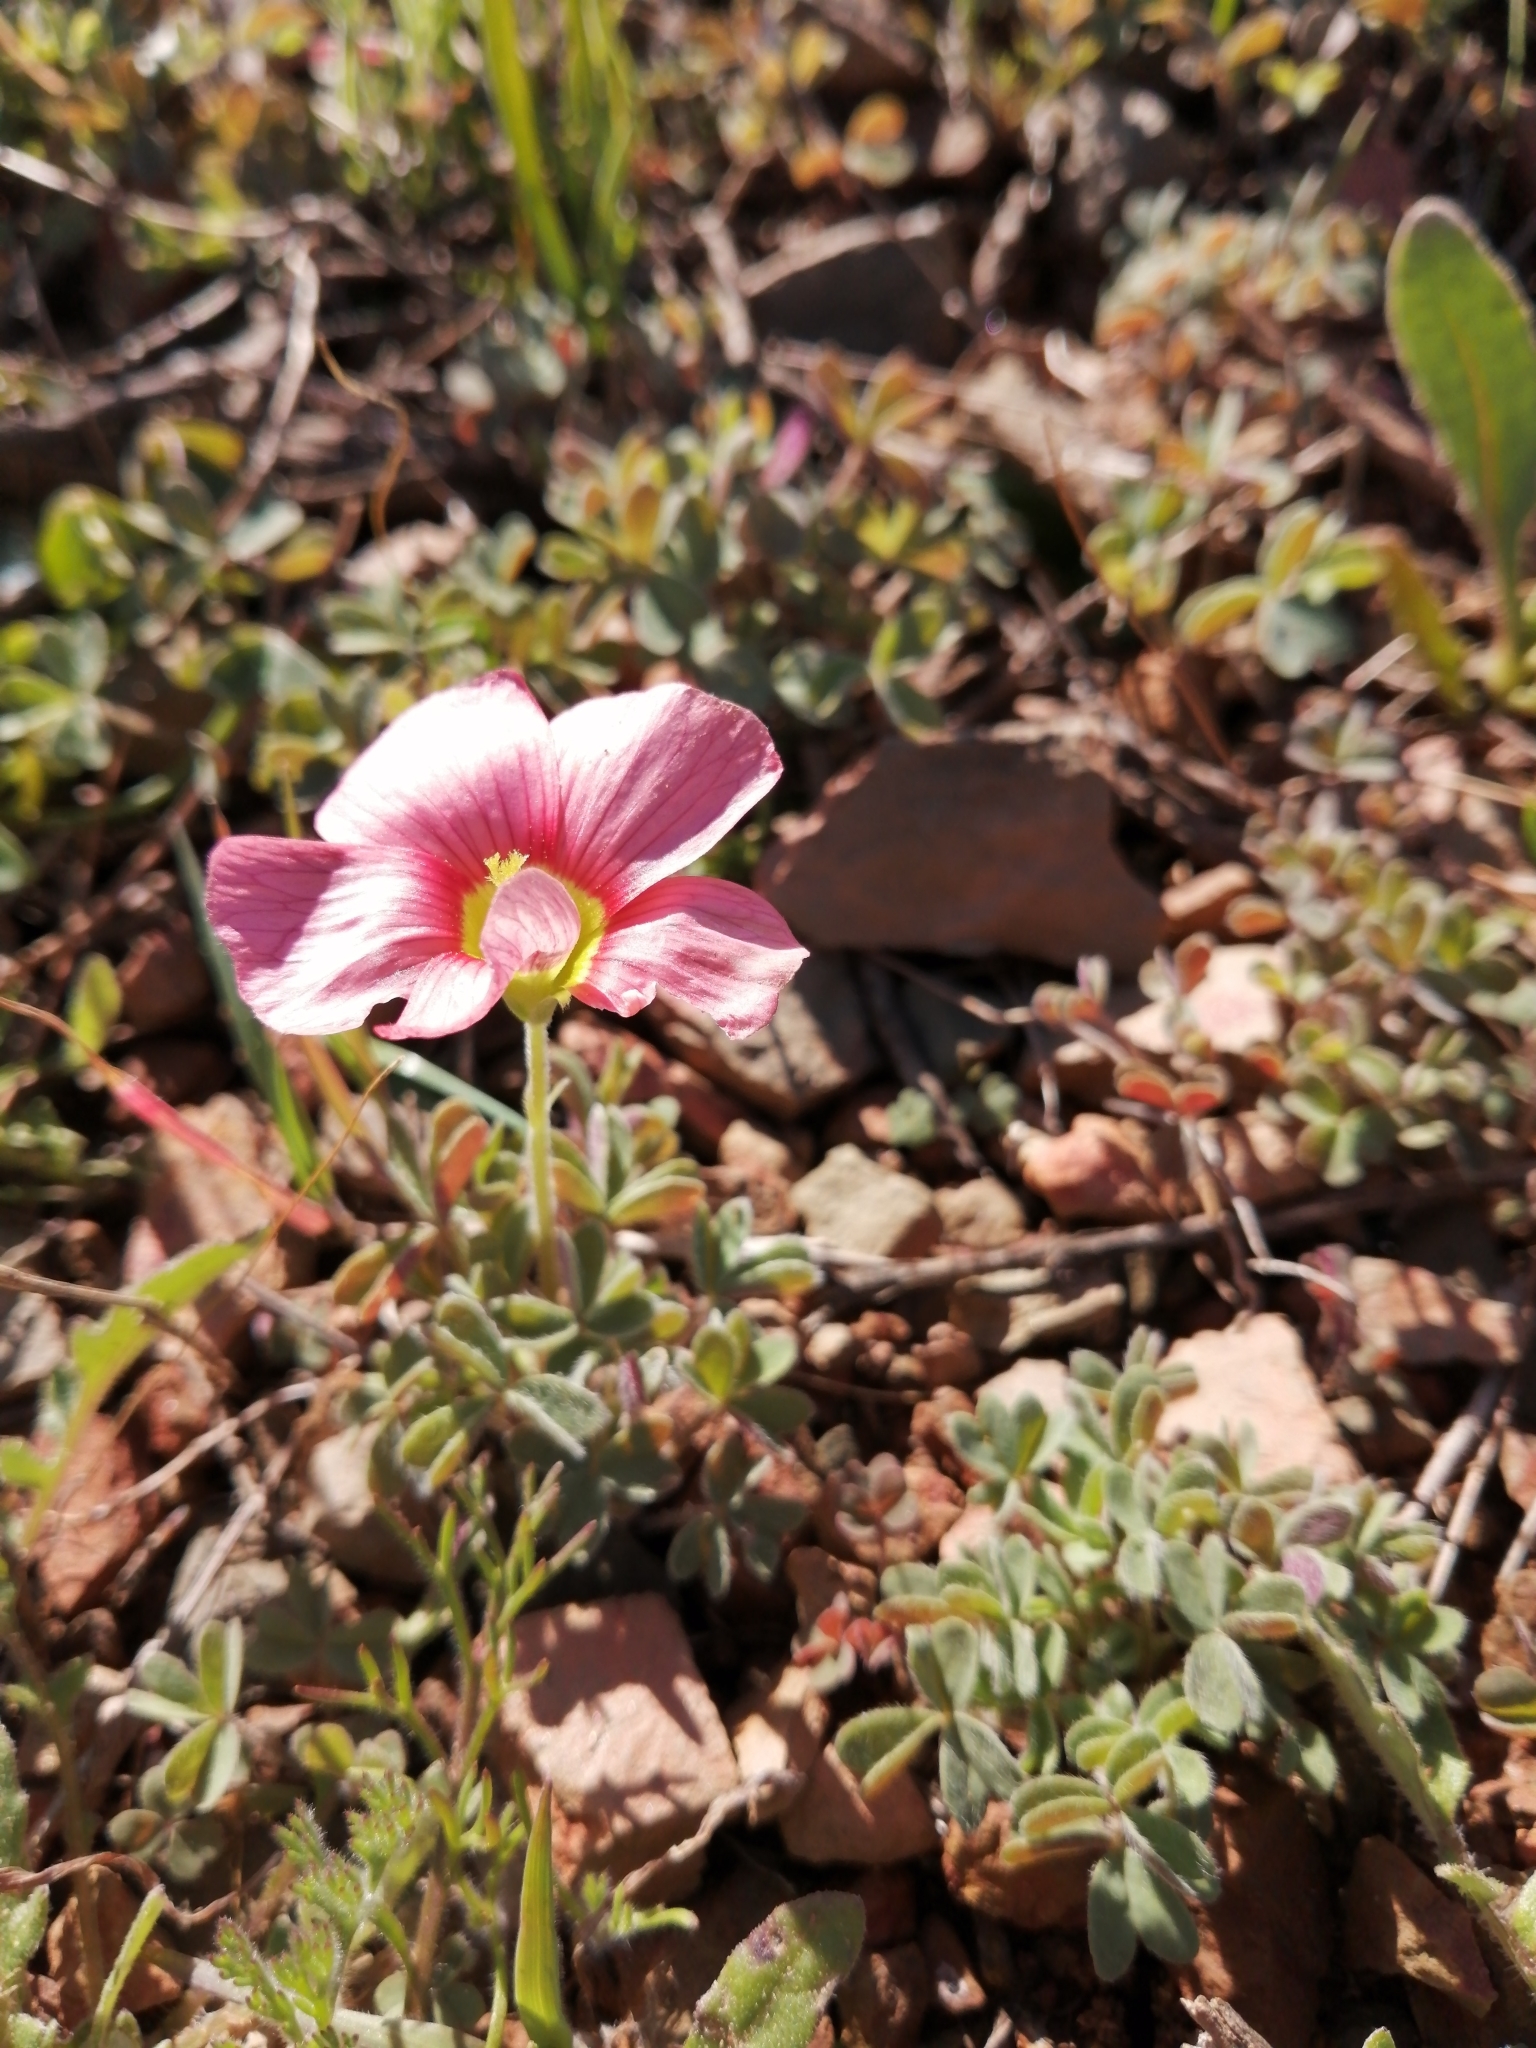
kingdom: Plantae
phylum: Tracheophyta
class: Magnoliopsida
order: Oxalidales
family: Oxalidaceae
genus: Oxalis
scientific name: Oxalis obtusa
